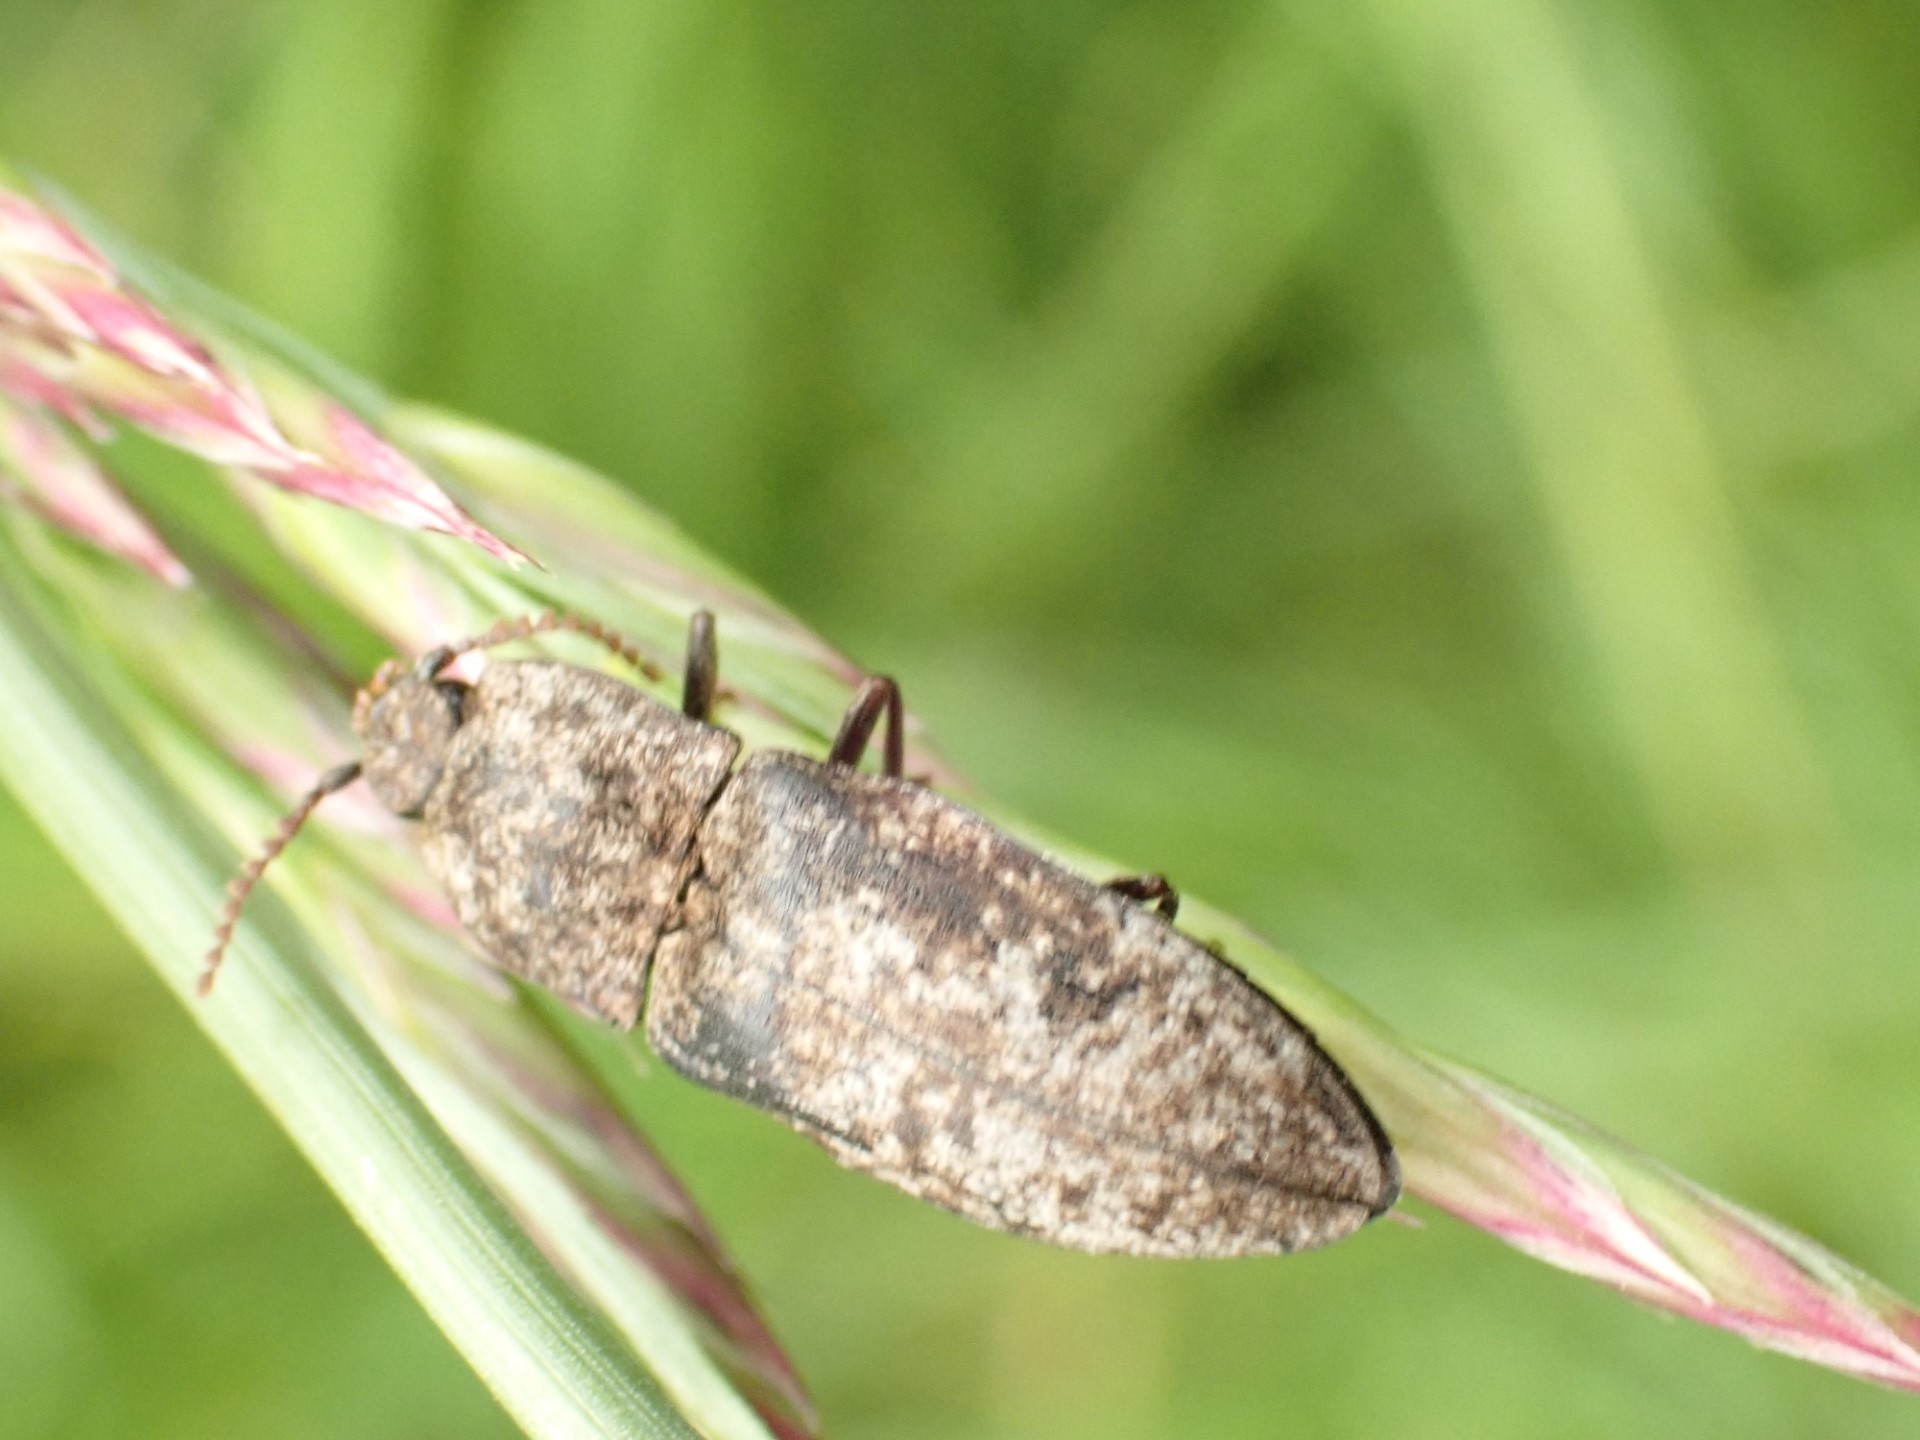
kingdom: Animalia
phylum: Arthropoda
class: Insecta
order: Coleoptera
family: Elateridae
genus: Agrypnus
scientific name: Agrypnus murinus
